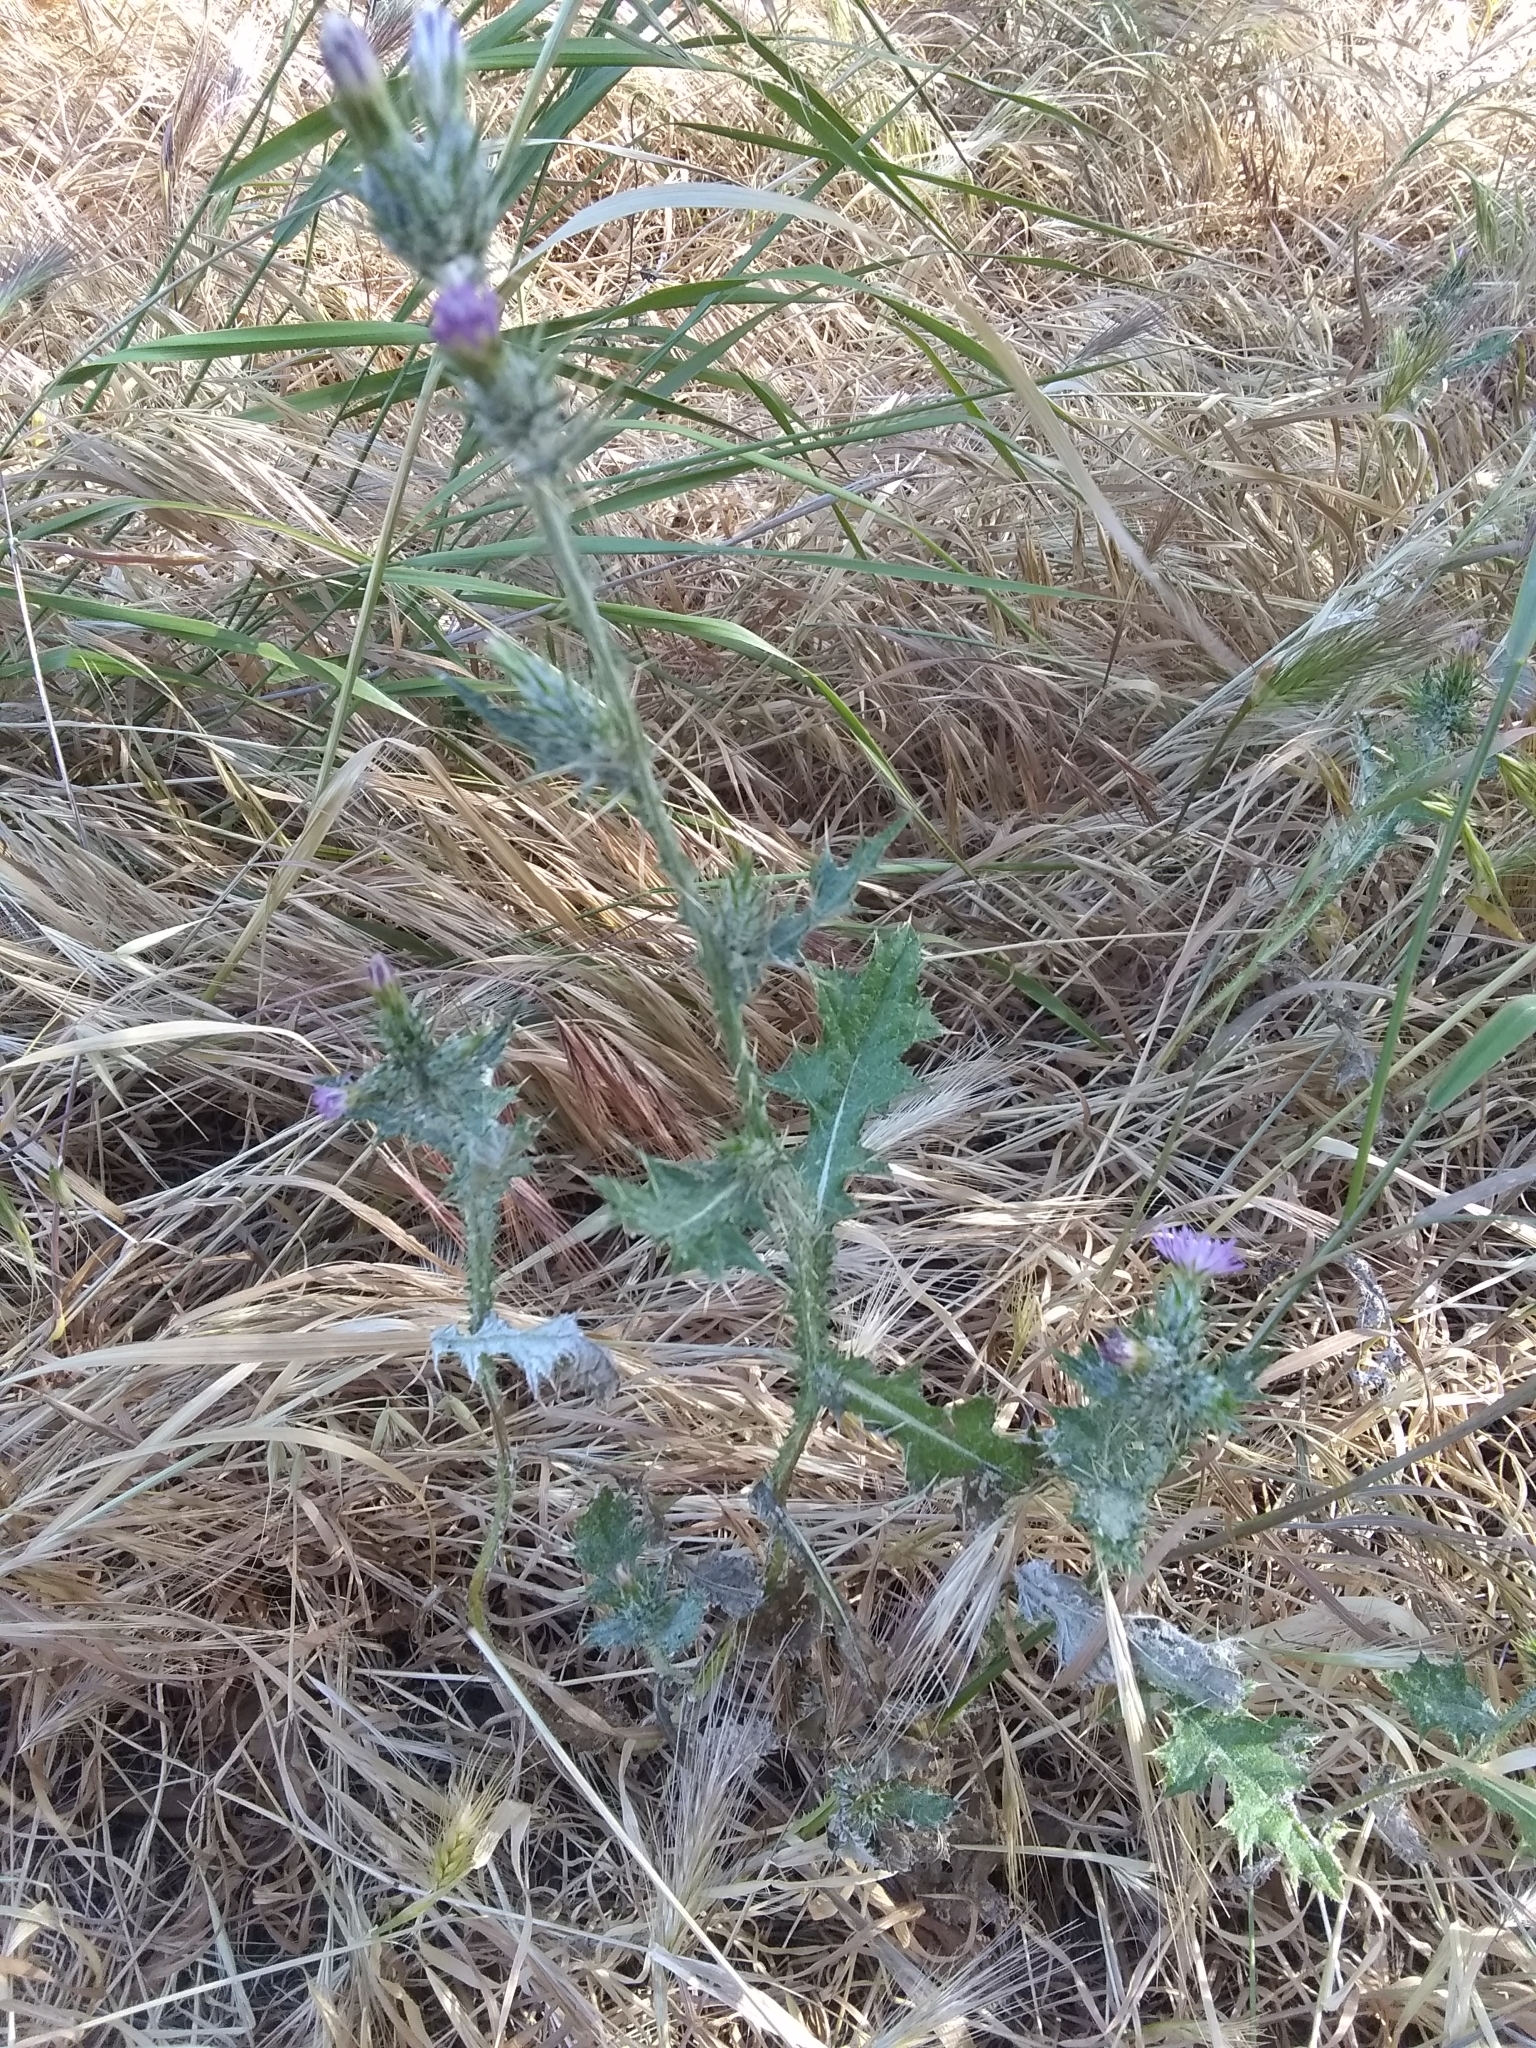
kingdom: Plantae
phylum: Tracheophyta
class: Magnoliopsida
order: Asterales
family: Asteraceae
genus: Carduus
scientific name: Carduus pycnocephalus
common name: Plymouth thistle
